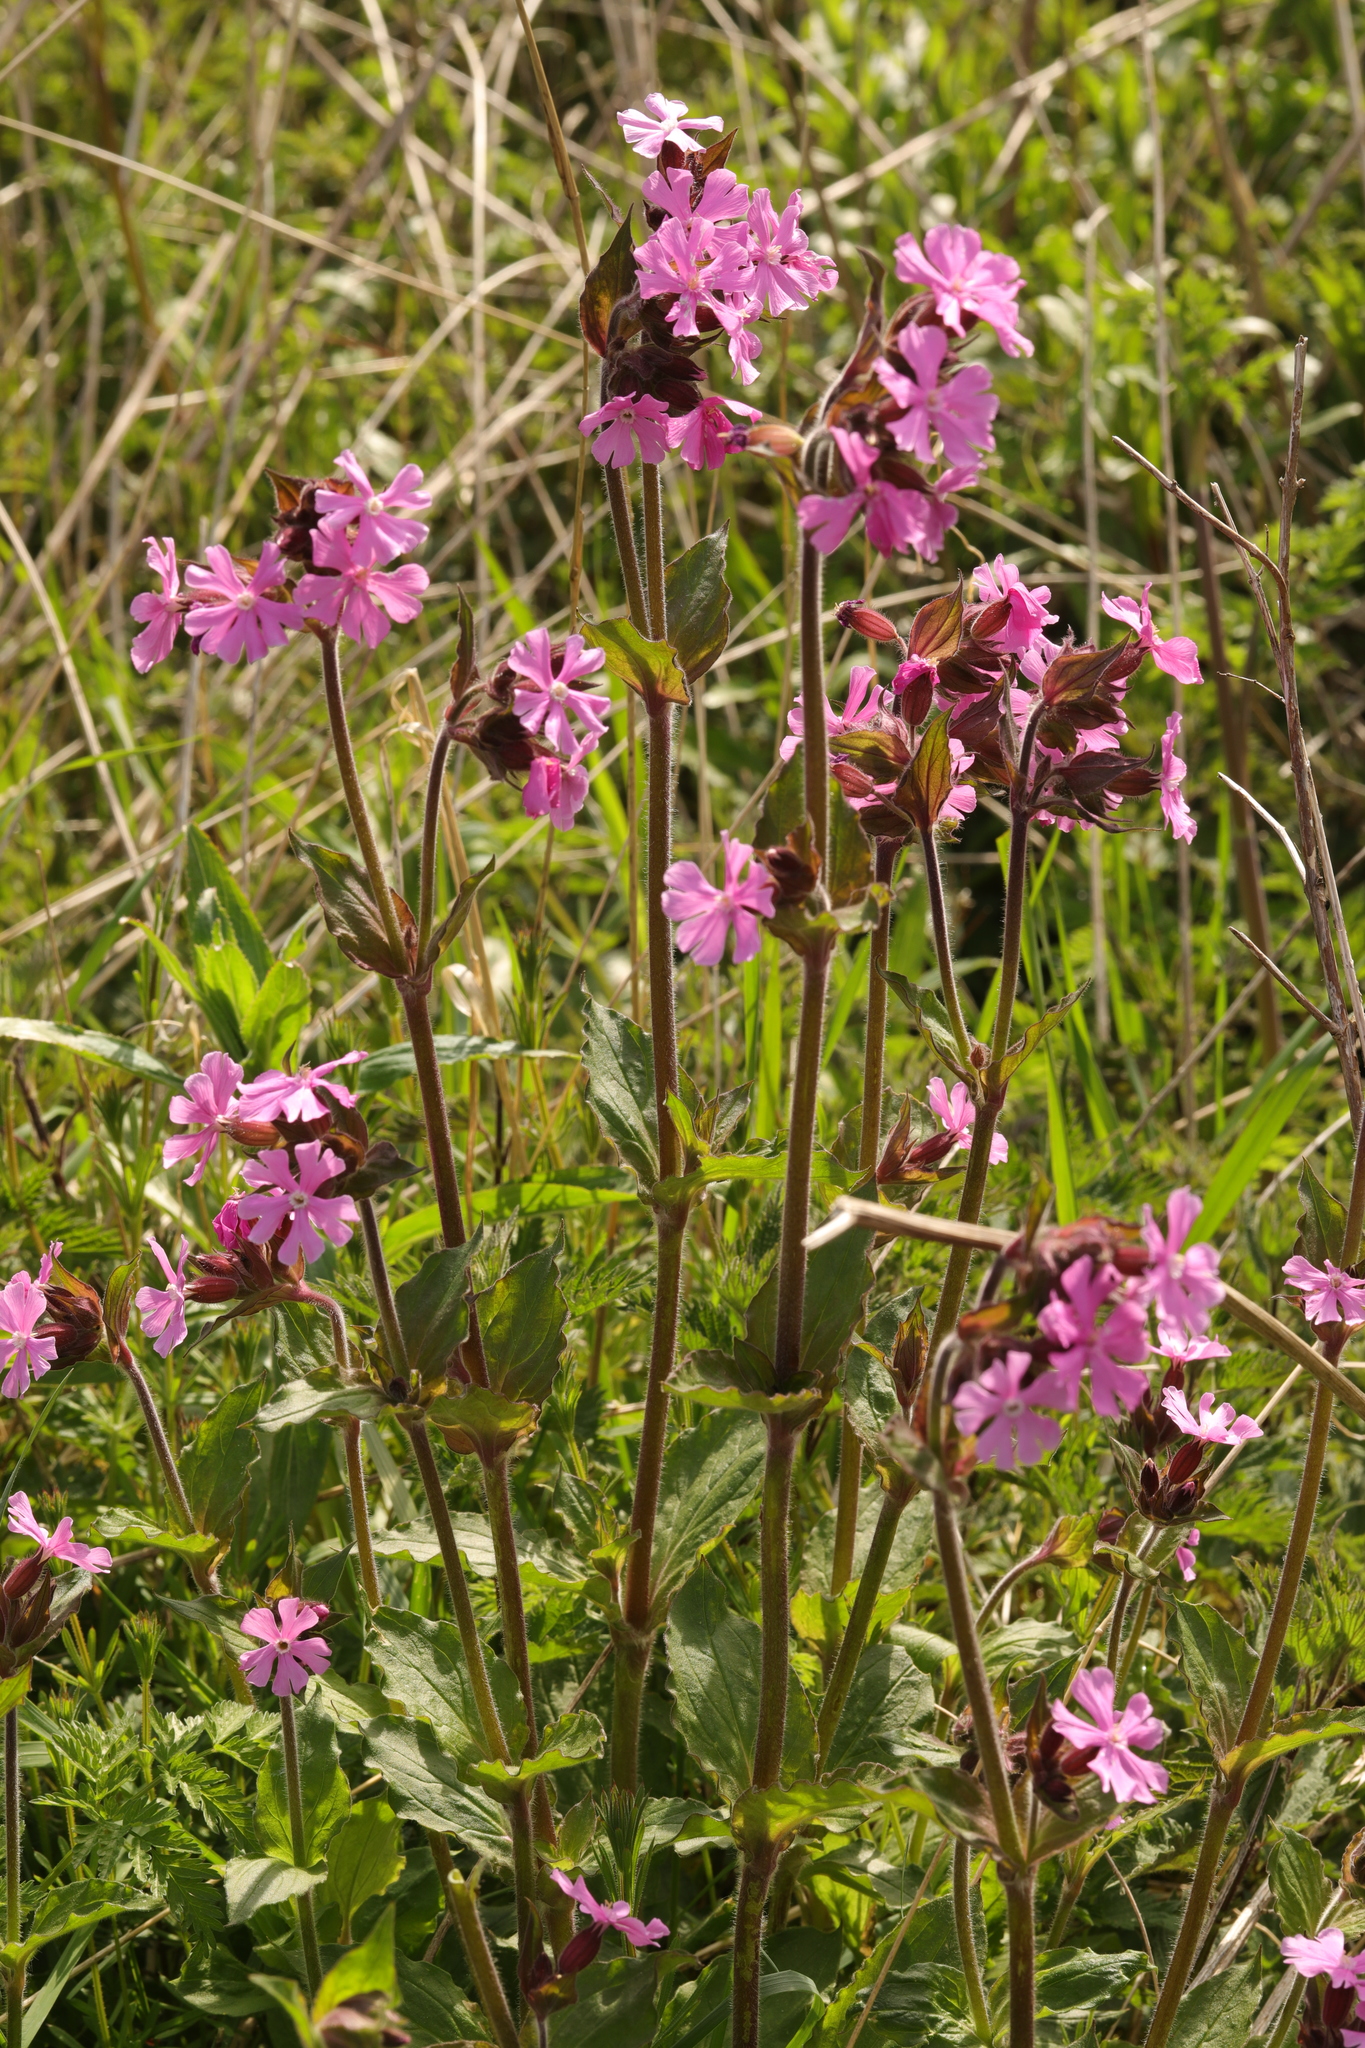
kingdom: Plantae
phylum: Tracheophyta
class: Magnoliopsida
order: Caryophyllales
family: Caryophyllaceae
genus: Silene
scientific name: Silene dioica
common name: Red campion
